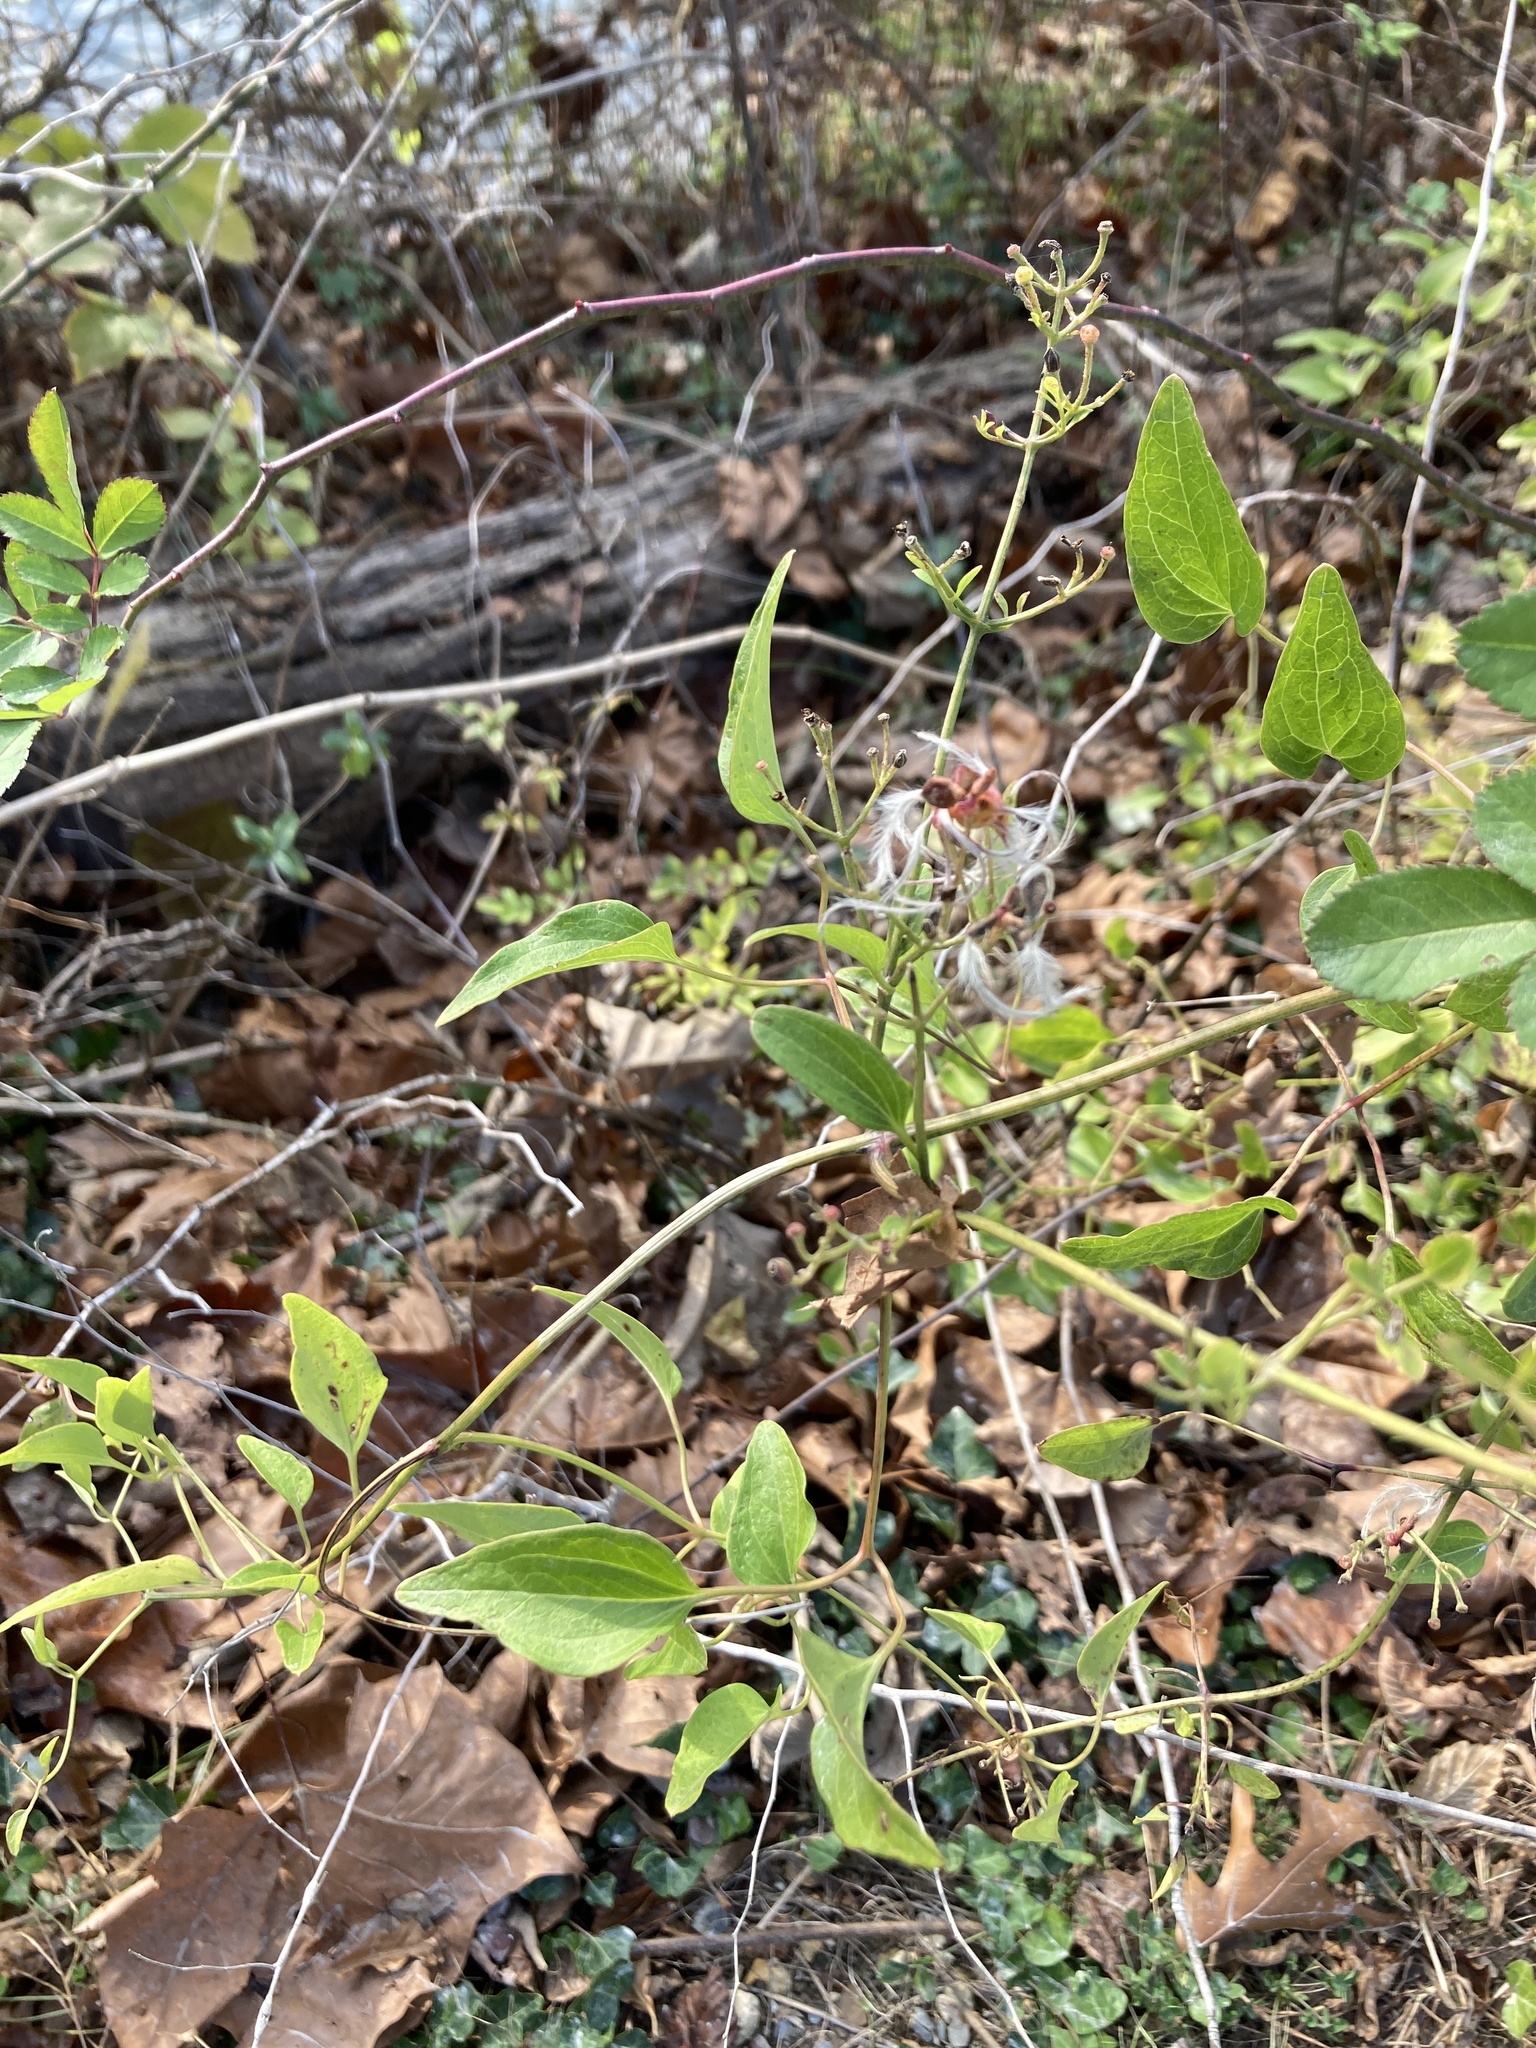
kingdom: Plantae
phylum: Tracheophyta
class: Magnoliopsida
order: Ranunculales
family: Ranunculaceae
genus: Clematis
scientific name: Clematis terniflora
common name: Sweet autumn clematis
